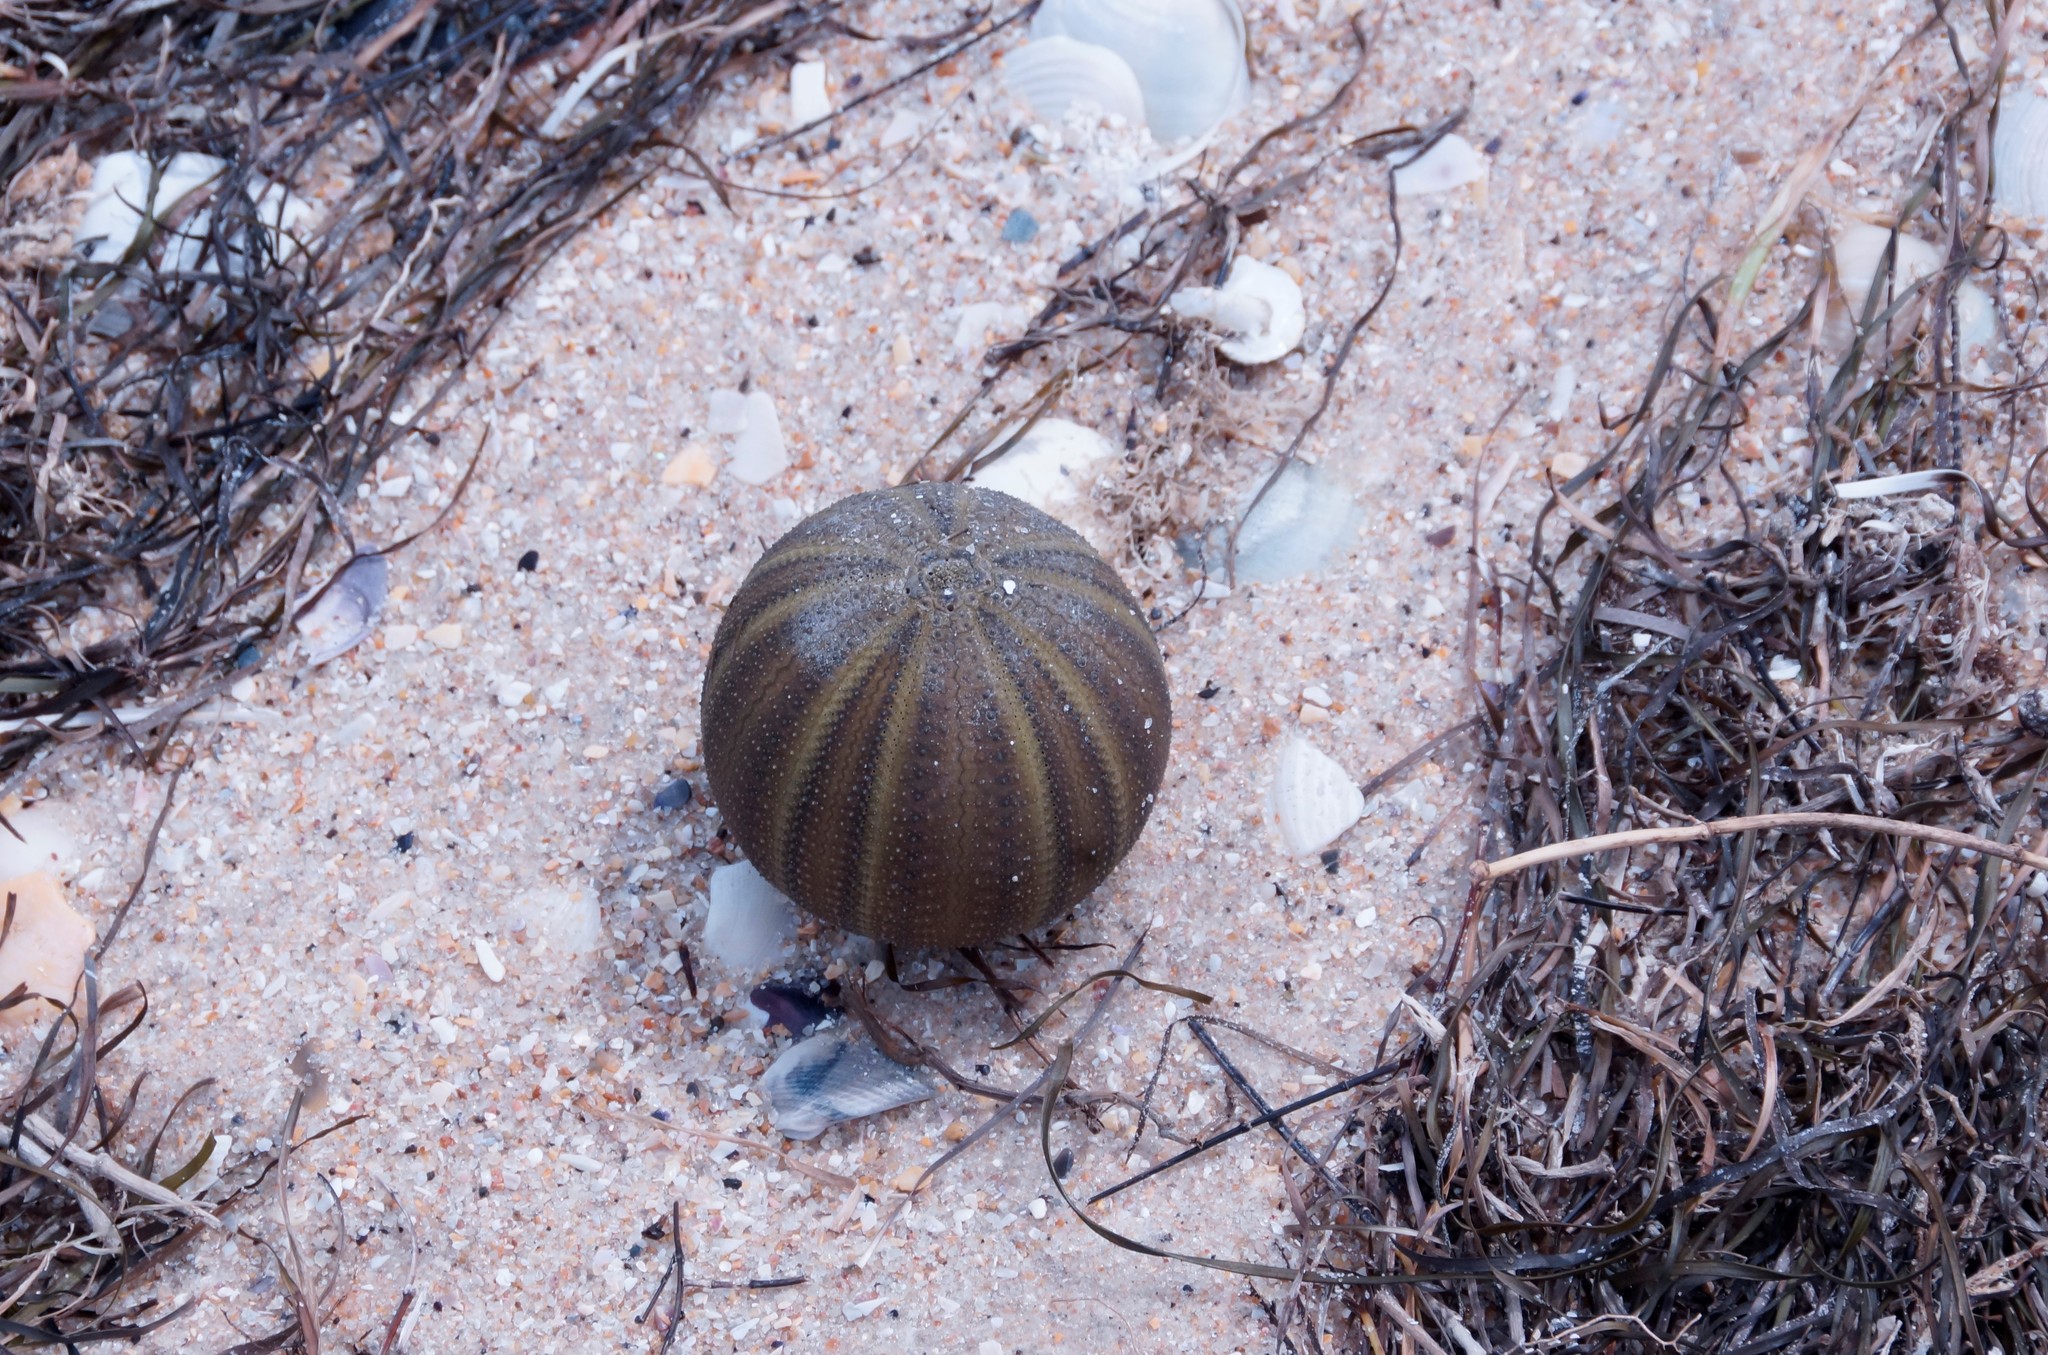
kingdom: Animalia
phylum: Echinodermata
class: Echinoidea
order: Camarodonta
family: Temnopleuridae
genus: Amblypneustes
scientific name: Amblypneustes ovum
